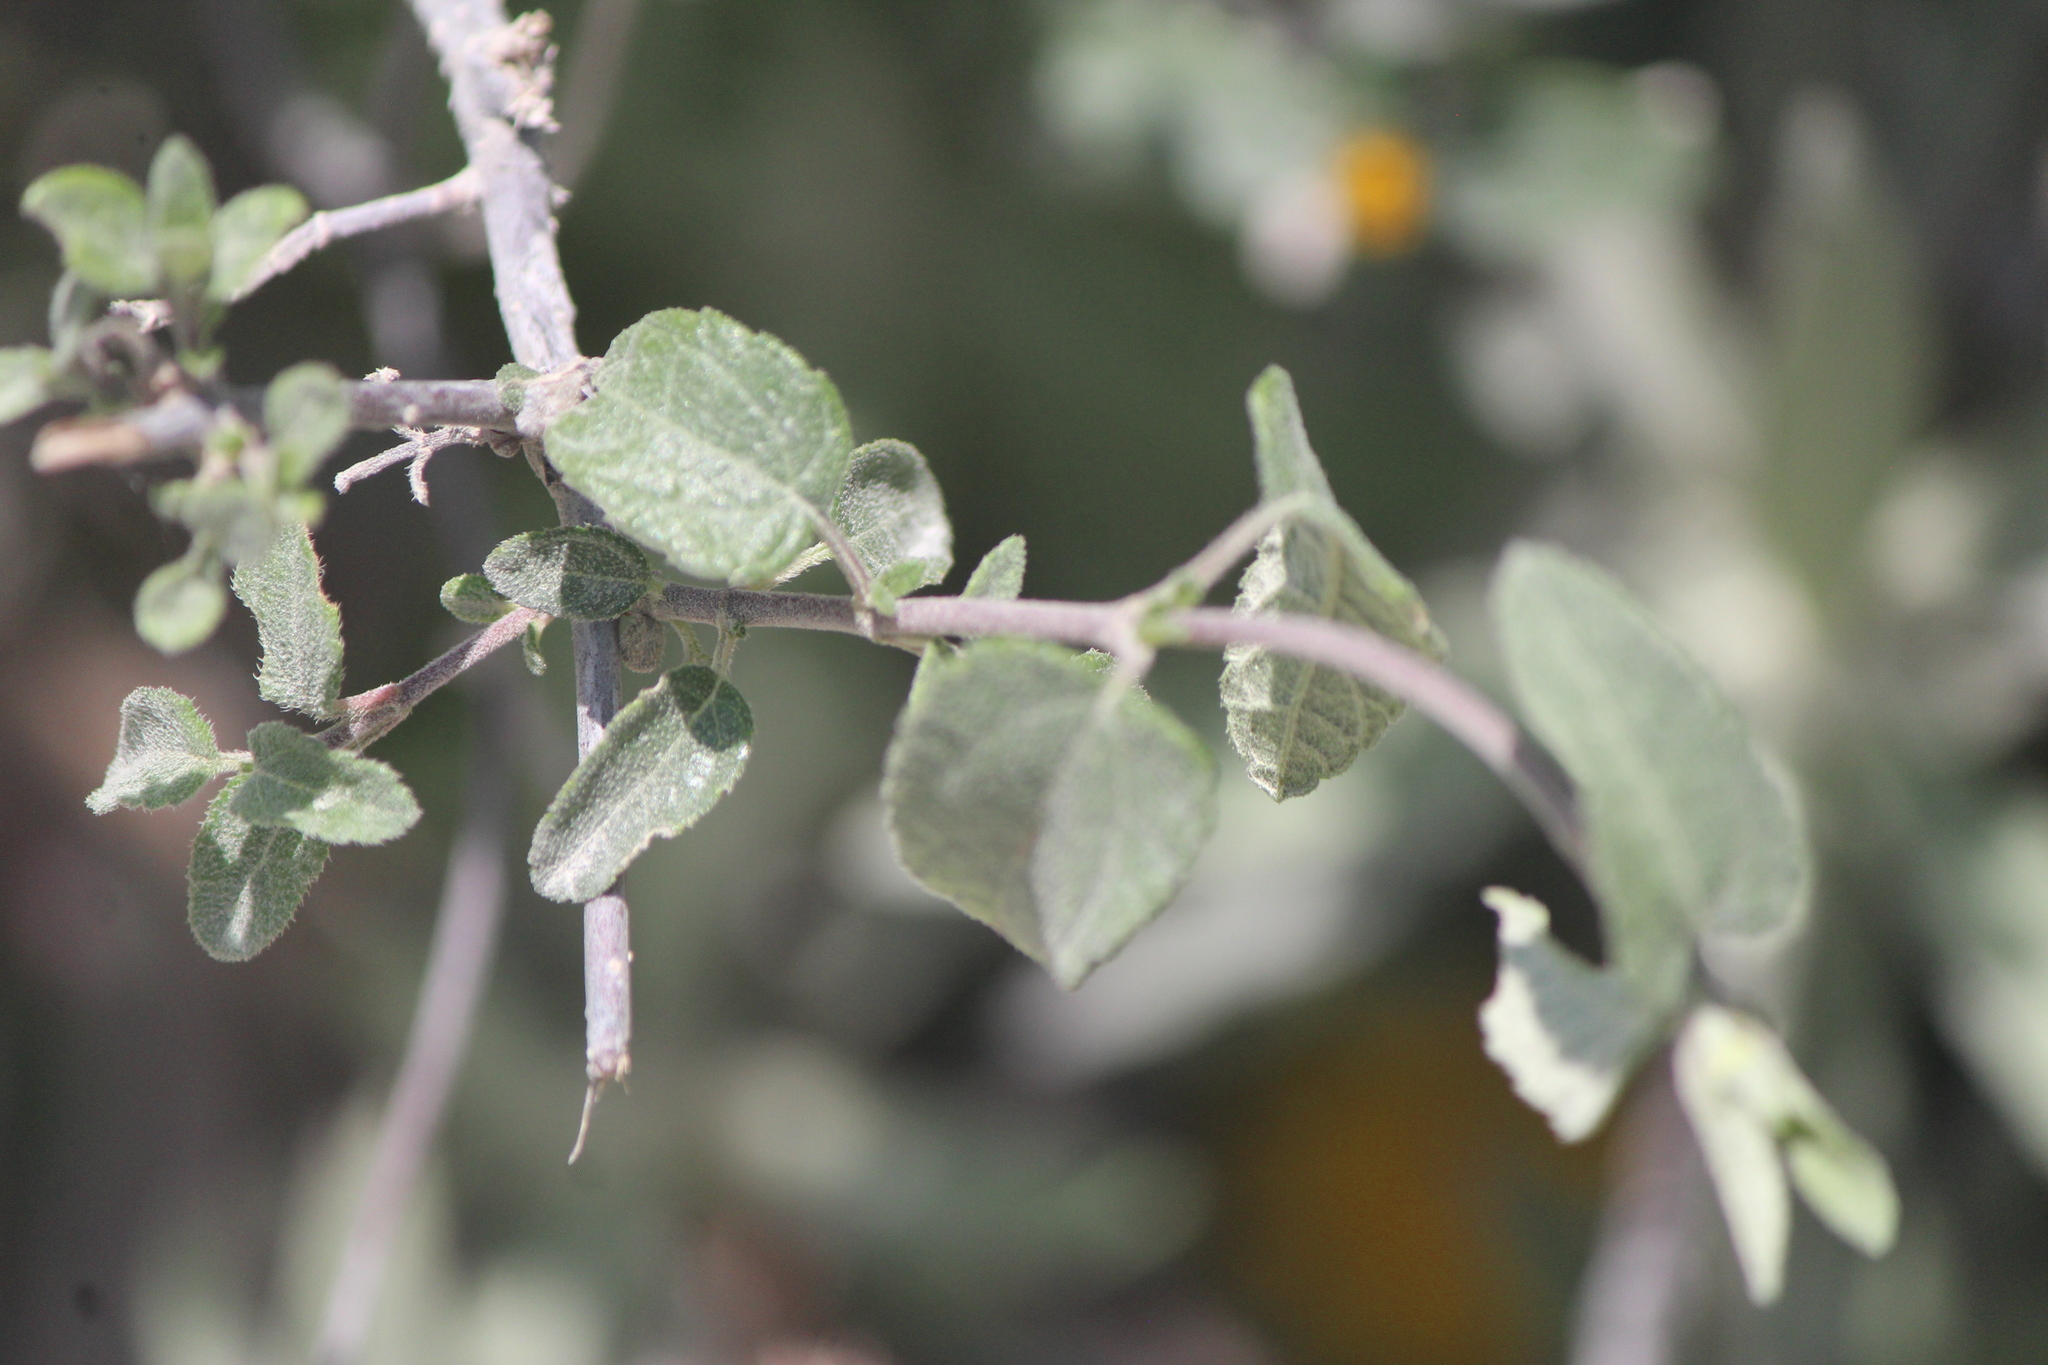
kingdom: Plantae
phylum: Tracheophyta
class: Magnoliopsida
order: Asterales
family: Asteraceae
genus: Jefea
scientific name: Jefea lantanifolia
